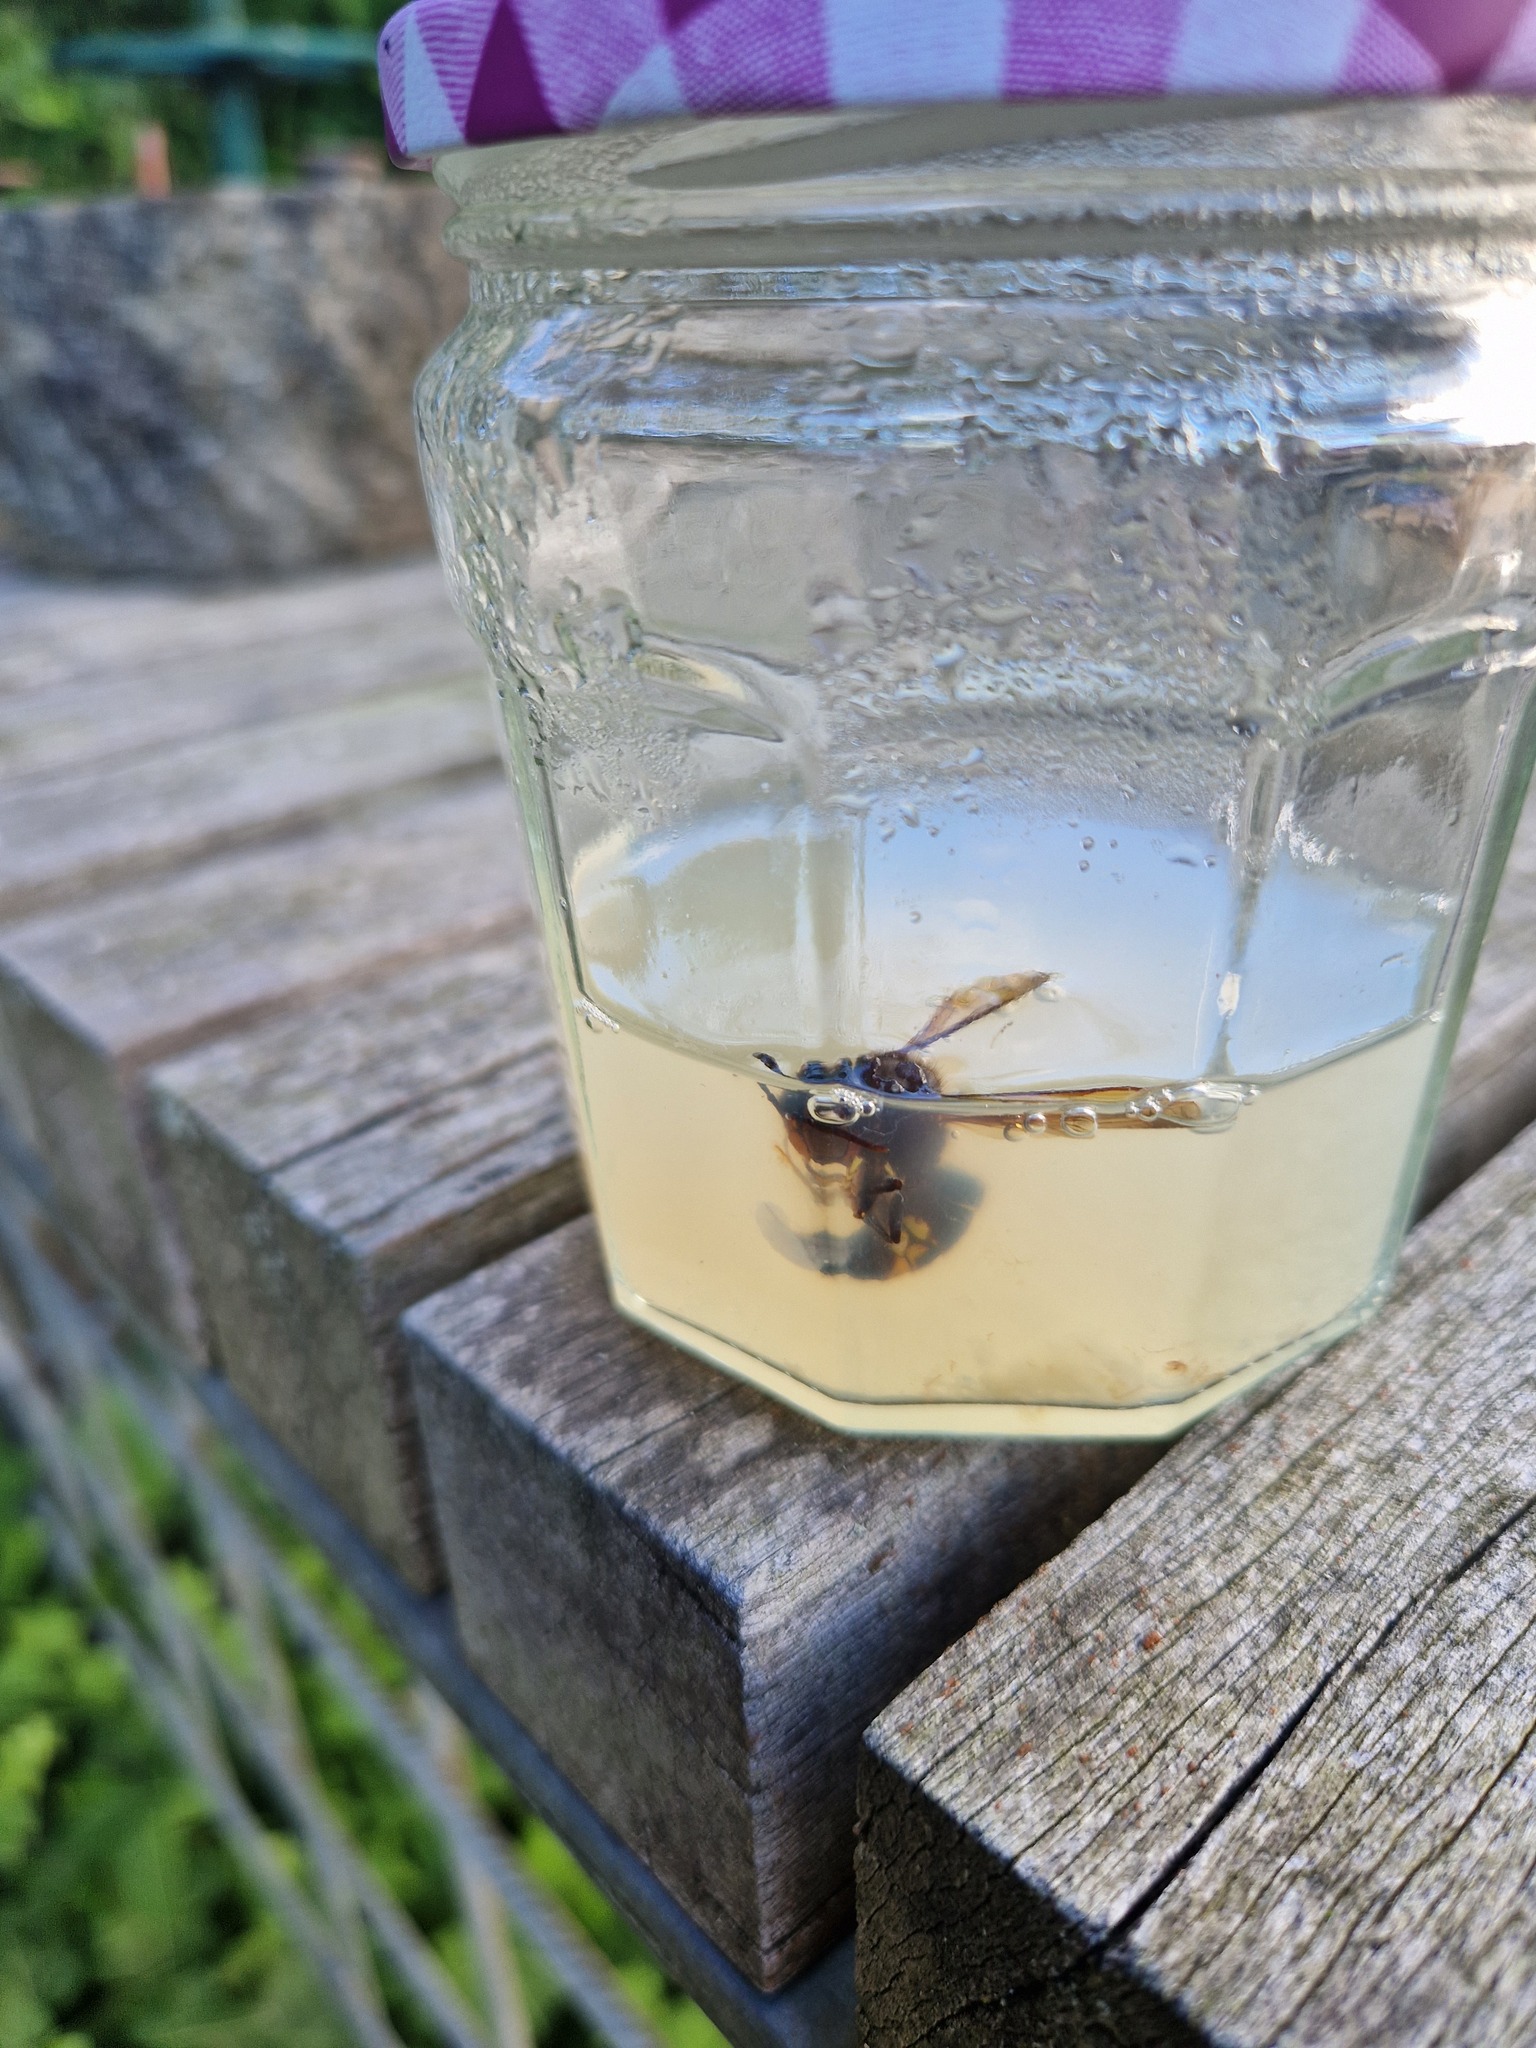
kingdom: Animalia
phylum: Arthropoda
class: Insecta
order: Hymenoptera
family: Vespidae
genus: Vespa
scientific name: Vespa velutina
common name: Asian hornet
